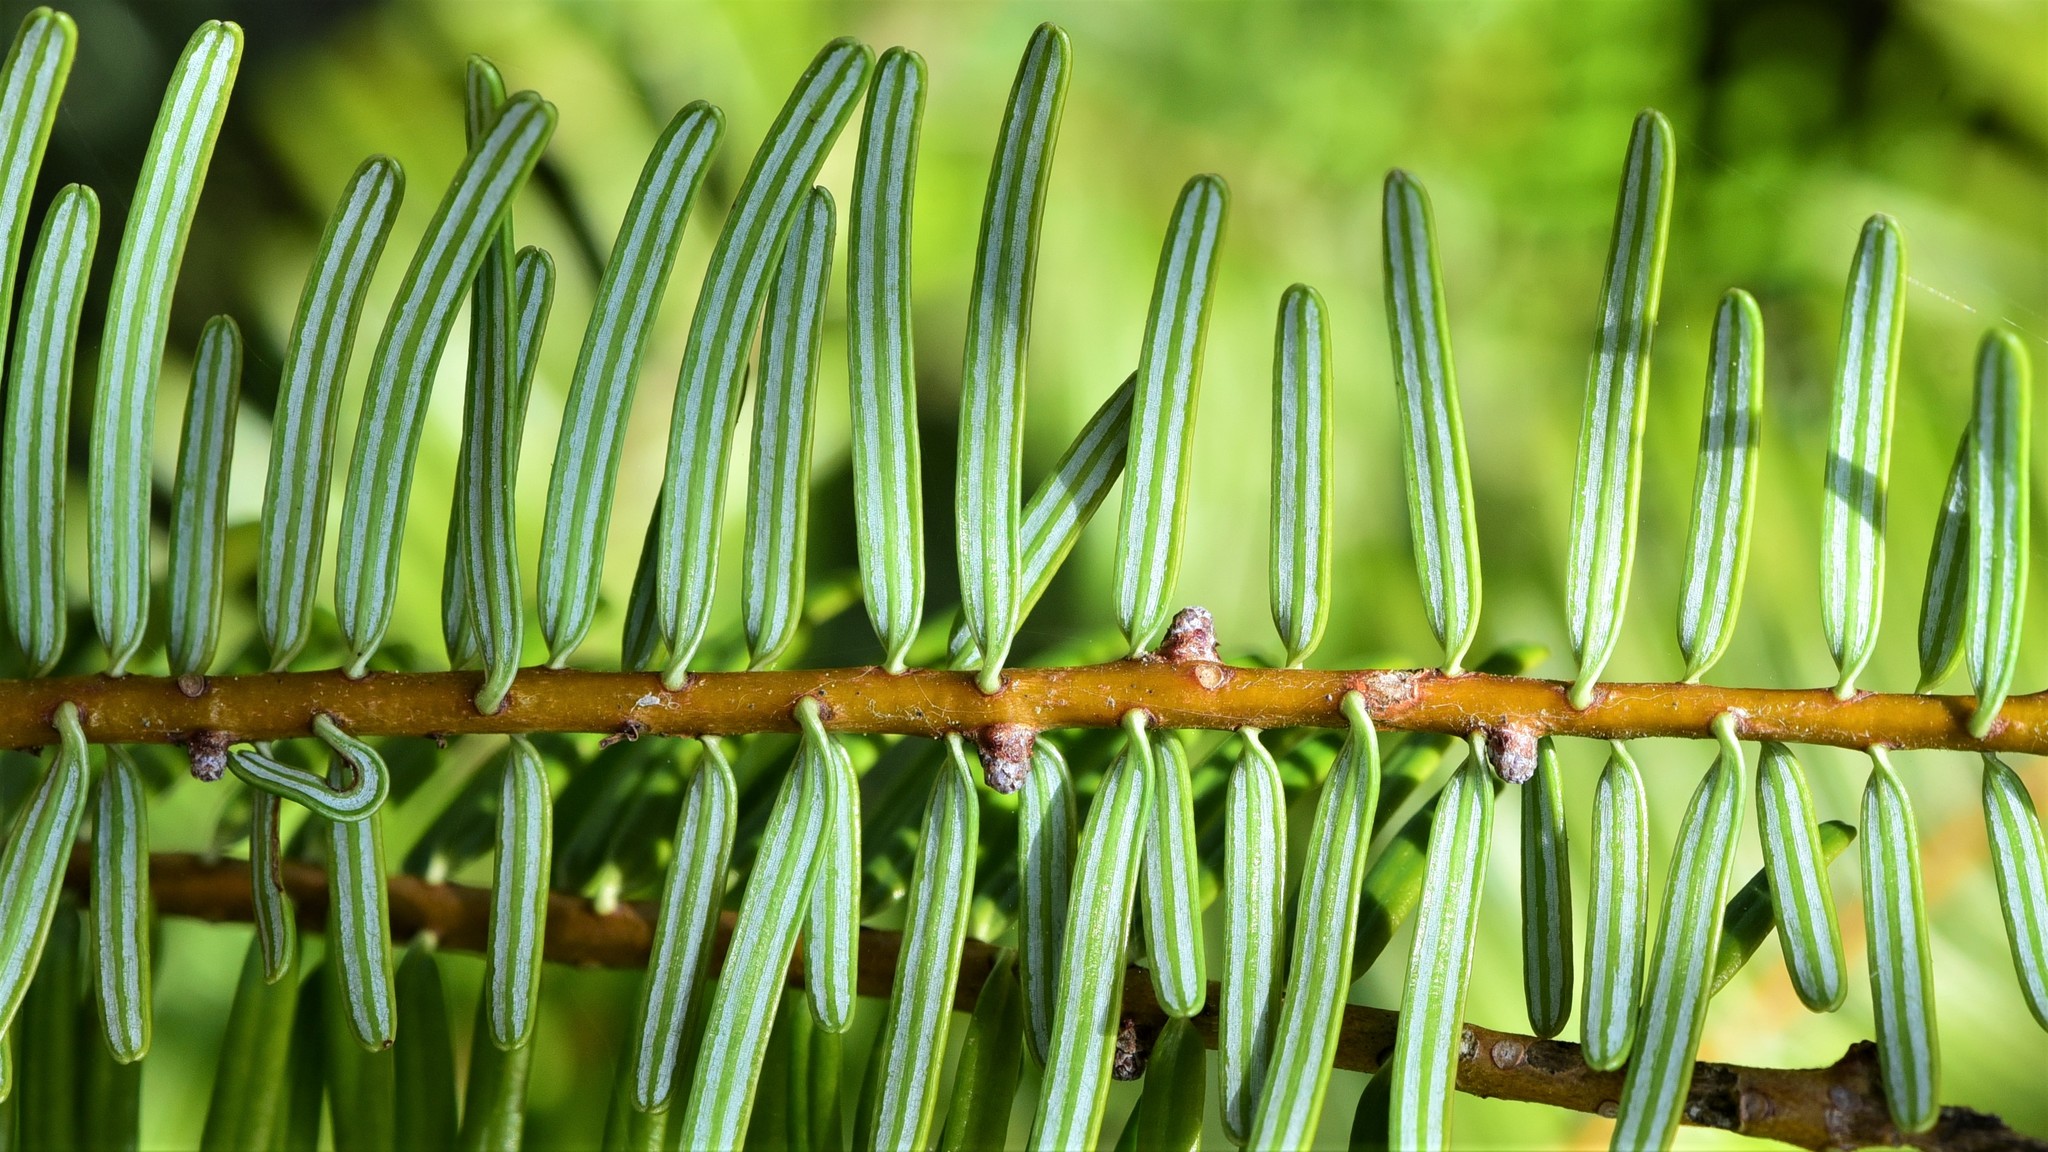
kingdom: Plantae
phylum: Tracheophyta
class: Pinopsida
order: Pinales
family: Pinaceae
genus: Abies
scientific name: Abies grandis
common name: Giant fir
